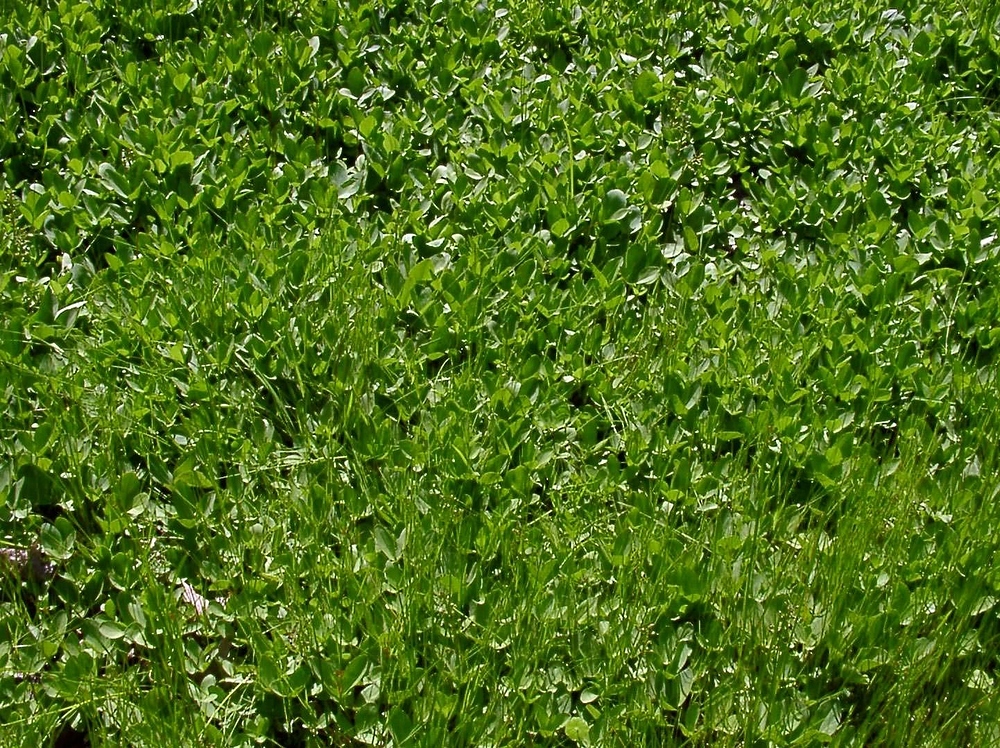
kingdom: Plantae
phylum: Tracheophyta
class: Magnoliopsida
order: Asterales
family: Menyanthaceae
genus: Menyanthes
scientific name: Menyanthes trifoliata
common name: Bogbean
